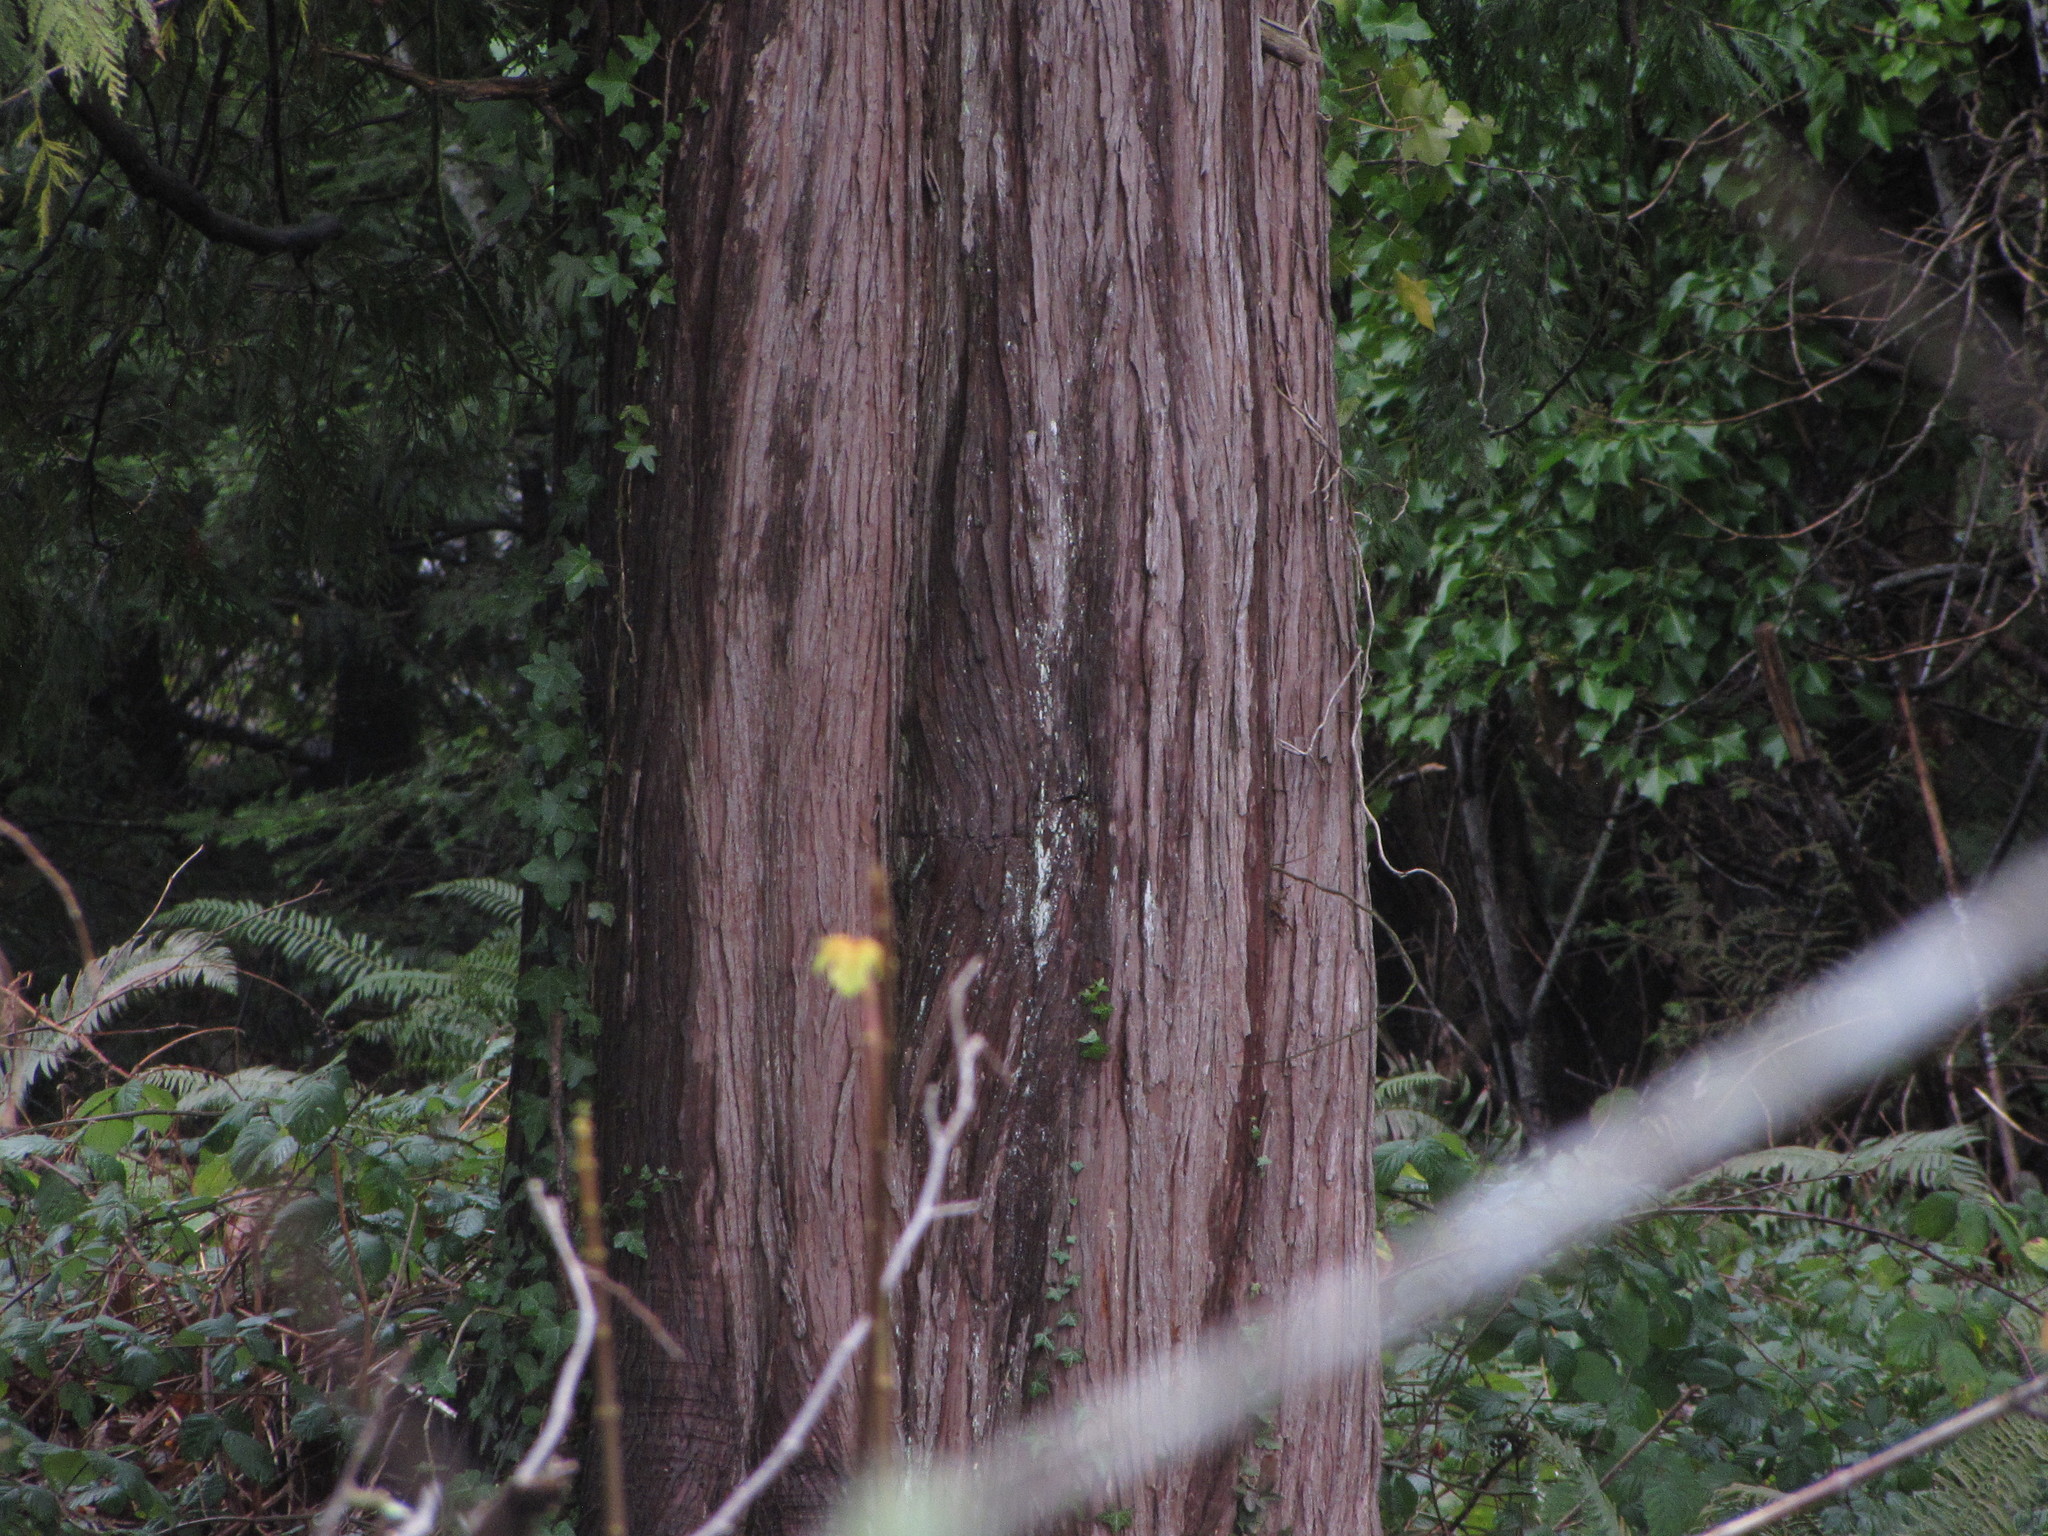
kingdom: Plantae
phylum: Tracheophyta
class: Pinopsida
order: Pinales
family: Cupressaceae
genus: Thuja
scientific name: Thuja plicata
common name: Western red-cedar
